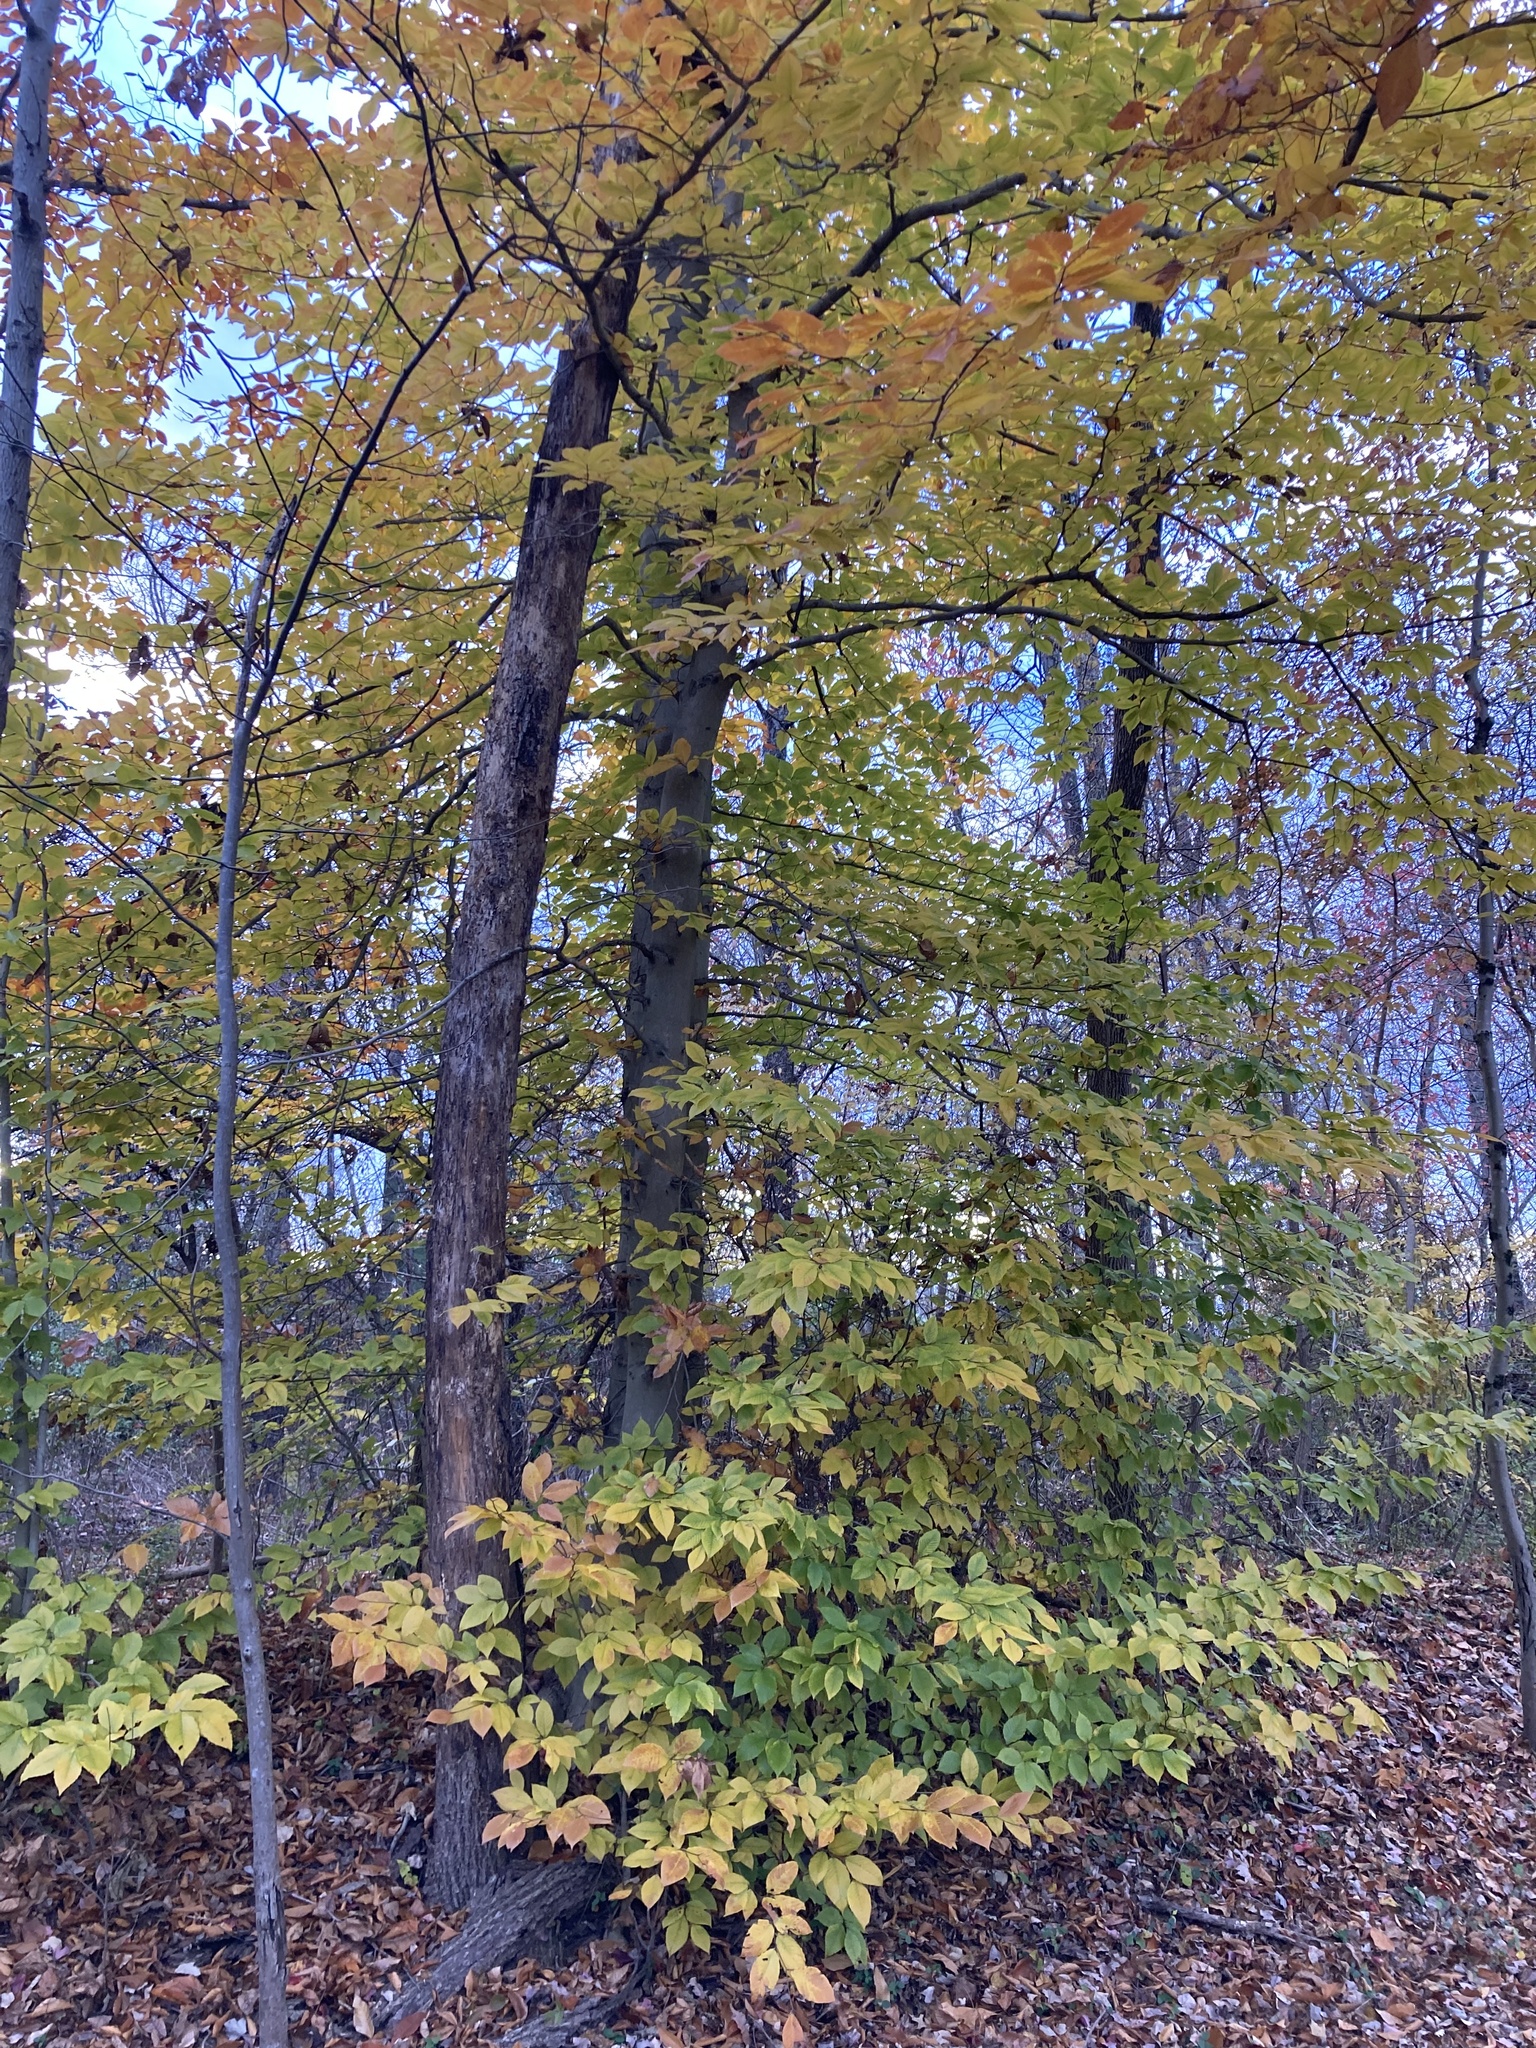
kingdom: Plantae
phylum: Tracheophyta
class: Magnoliopsida
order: Fagales
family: Fagaceae
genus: Fagus
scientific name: Fagus grandifolia
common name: American beech
